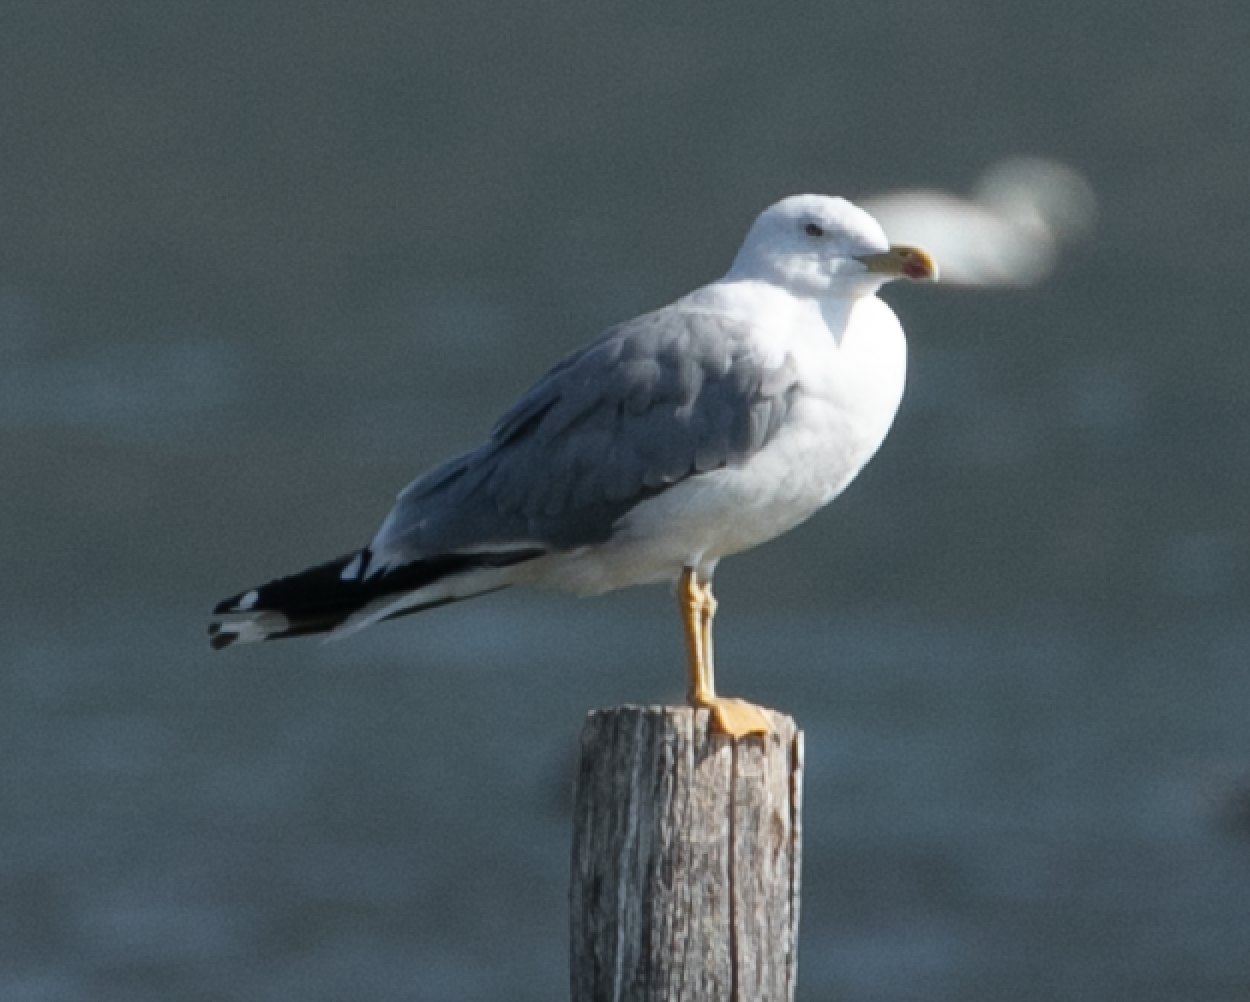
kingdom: Animalia
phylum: Chordata
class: Aves
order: Charadriiformes
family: Laridae
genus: Larus
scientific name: Larus michahellis
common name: Yellow-legged gull
